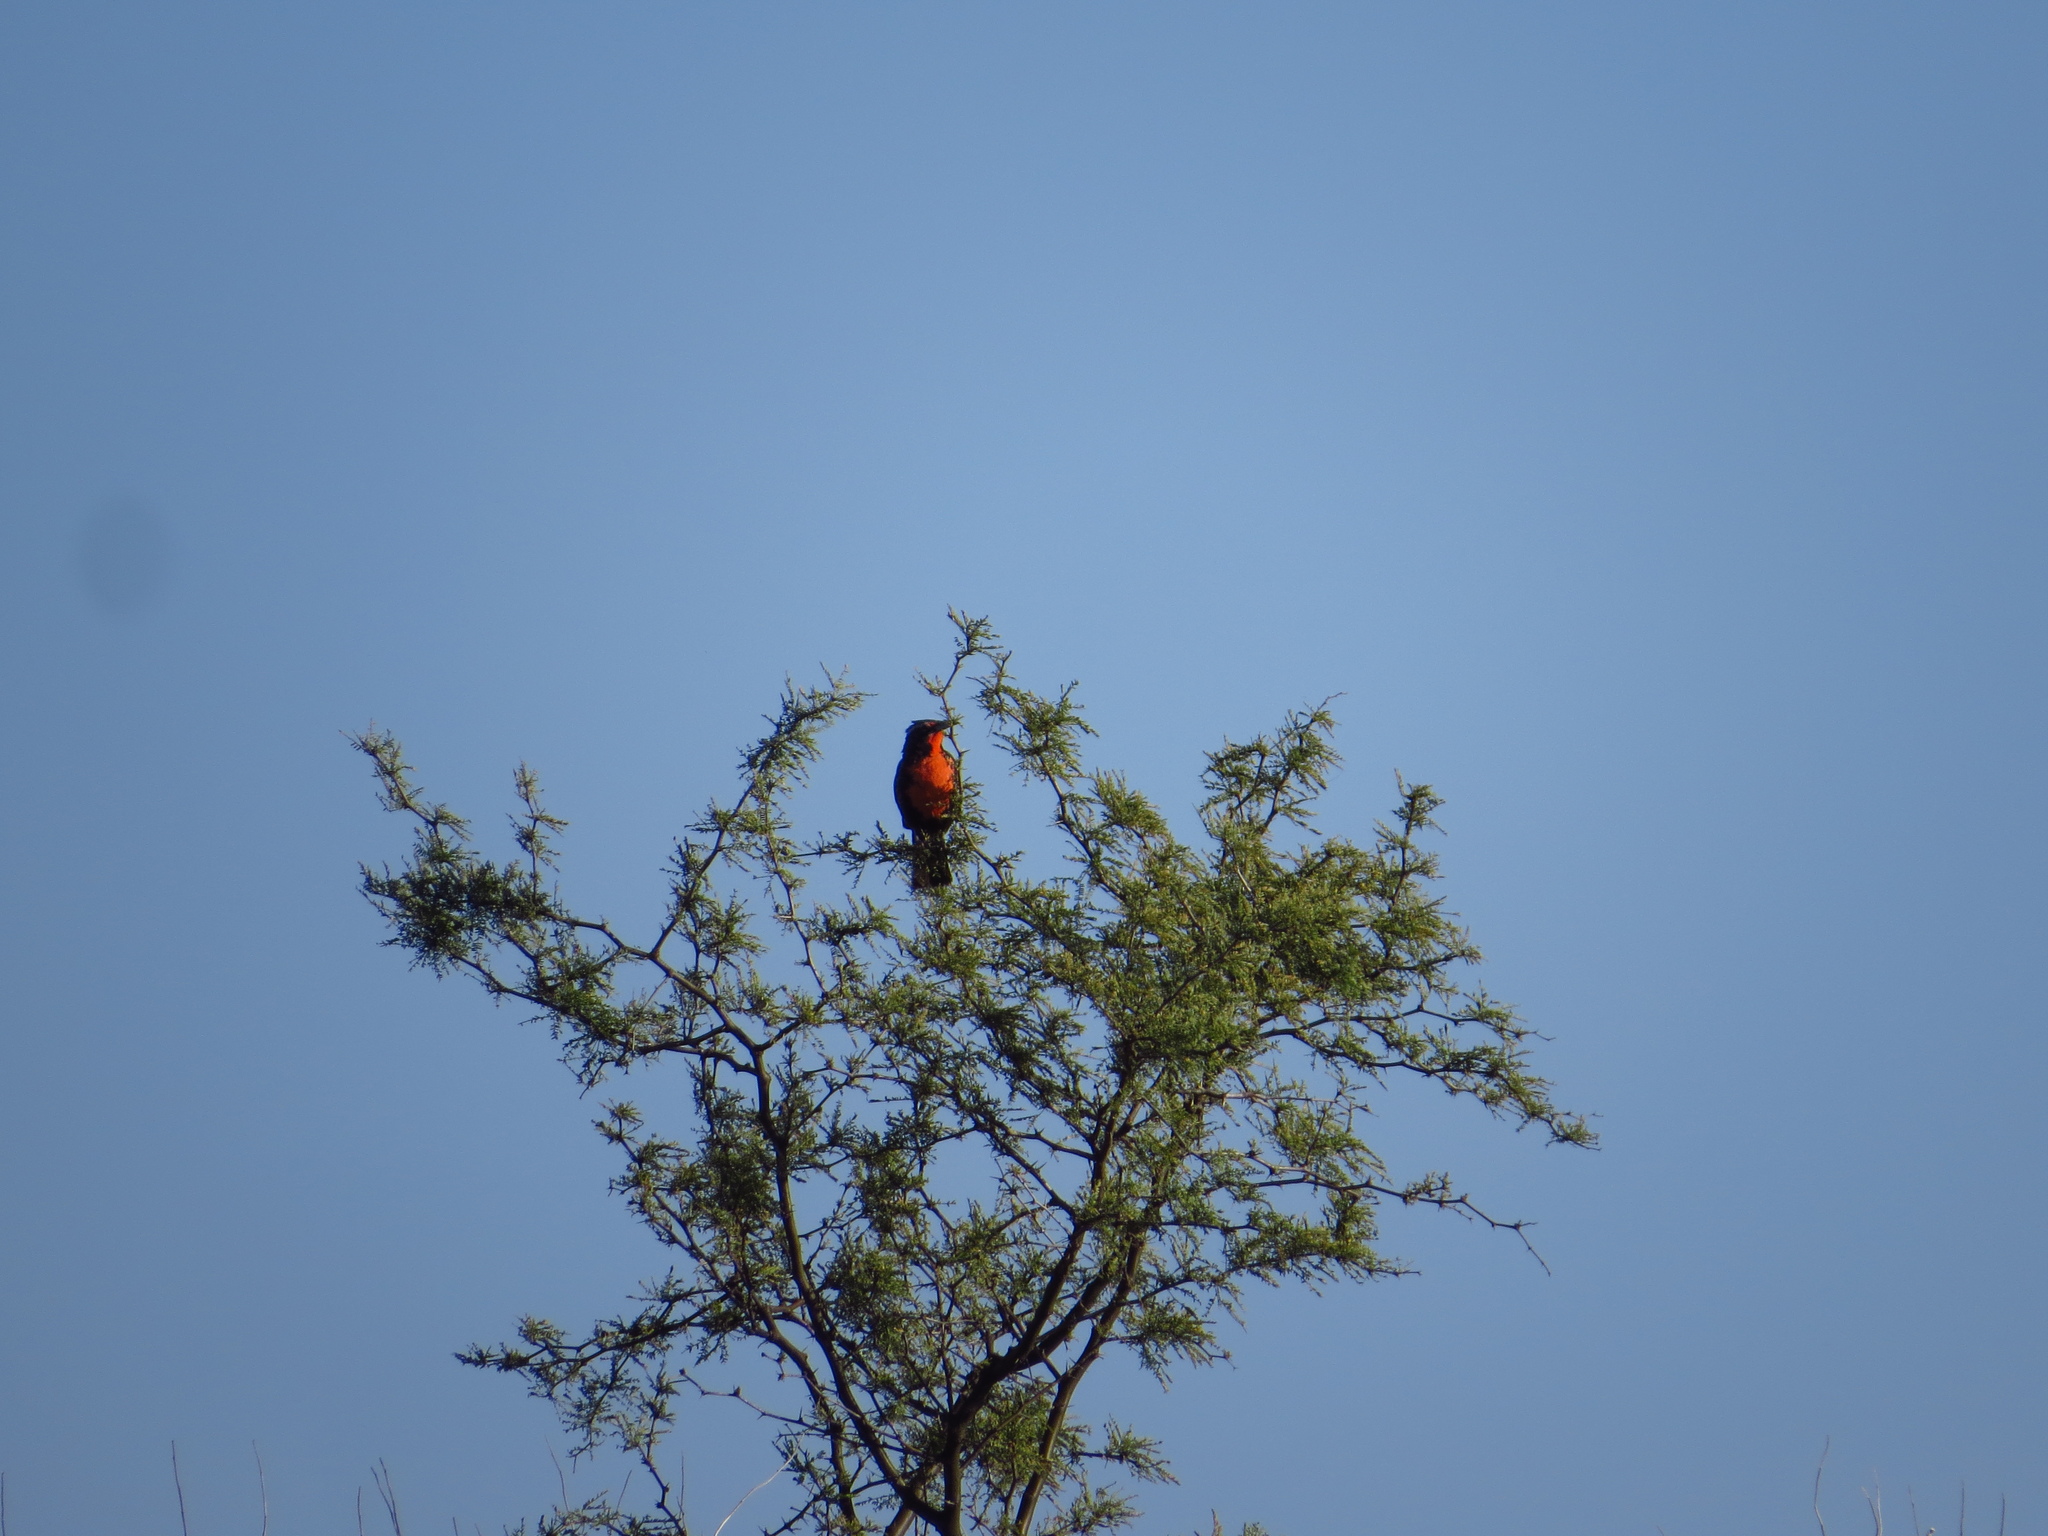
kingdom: Animalia
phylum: Chordata
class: Aves
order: Passeriformes
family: Icteridae
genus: Sturnella
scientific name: Sturnella loyca
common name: Long-tailed meadowlark
